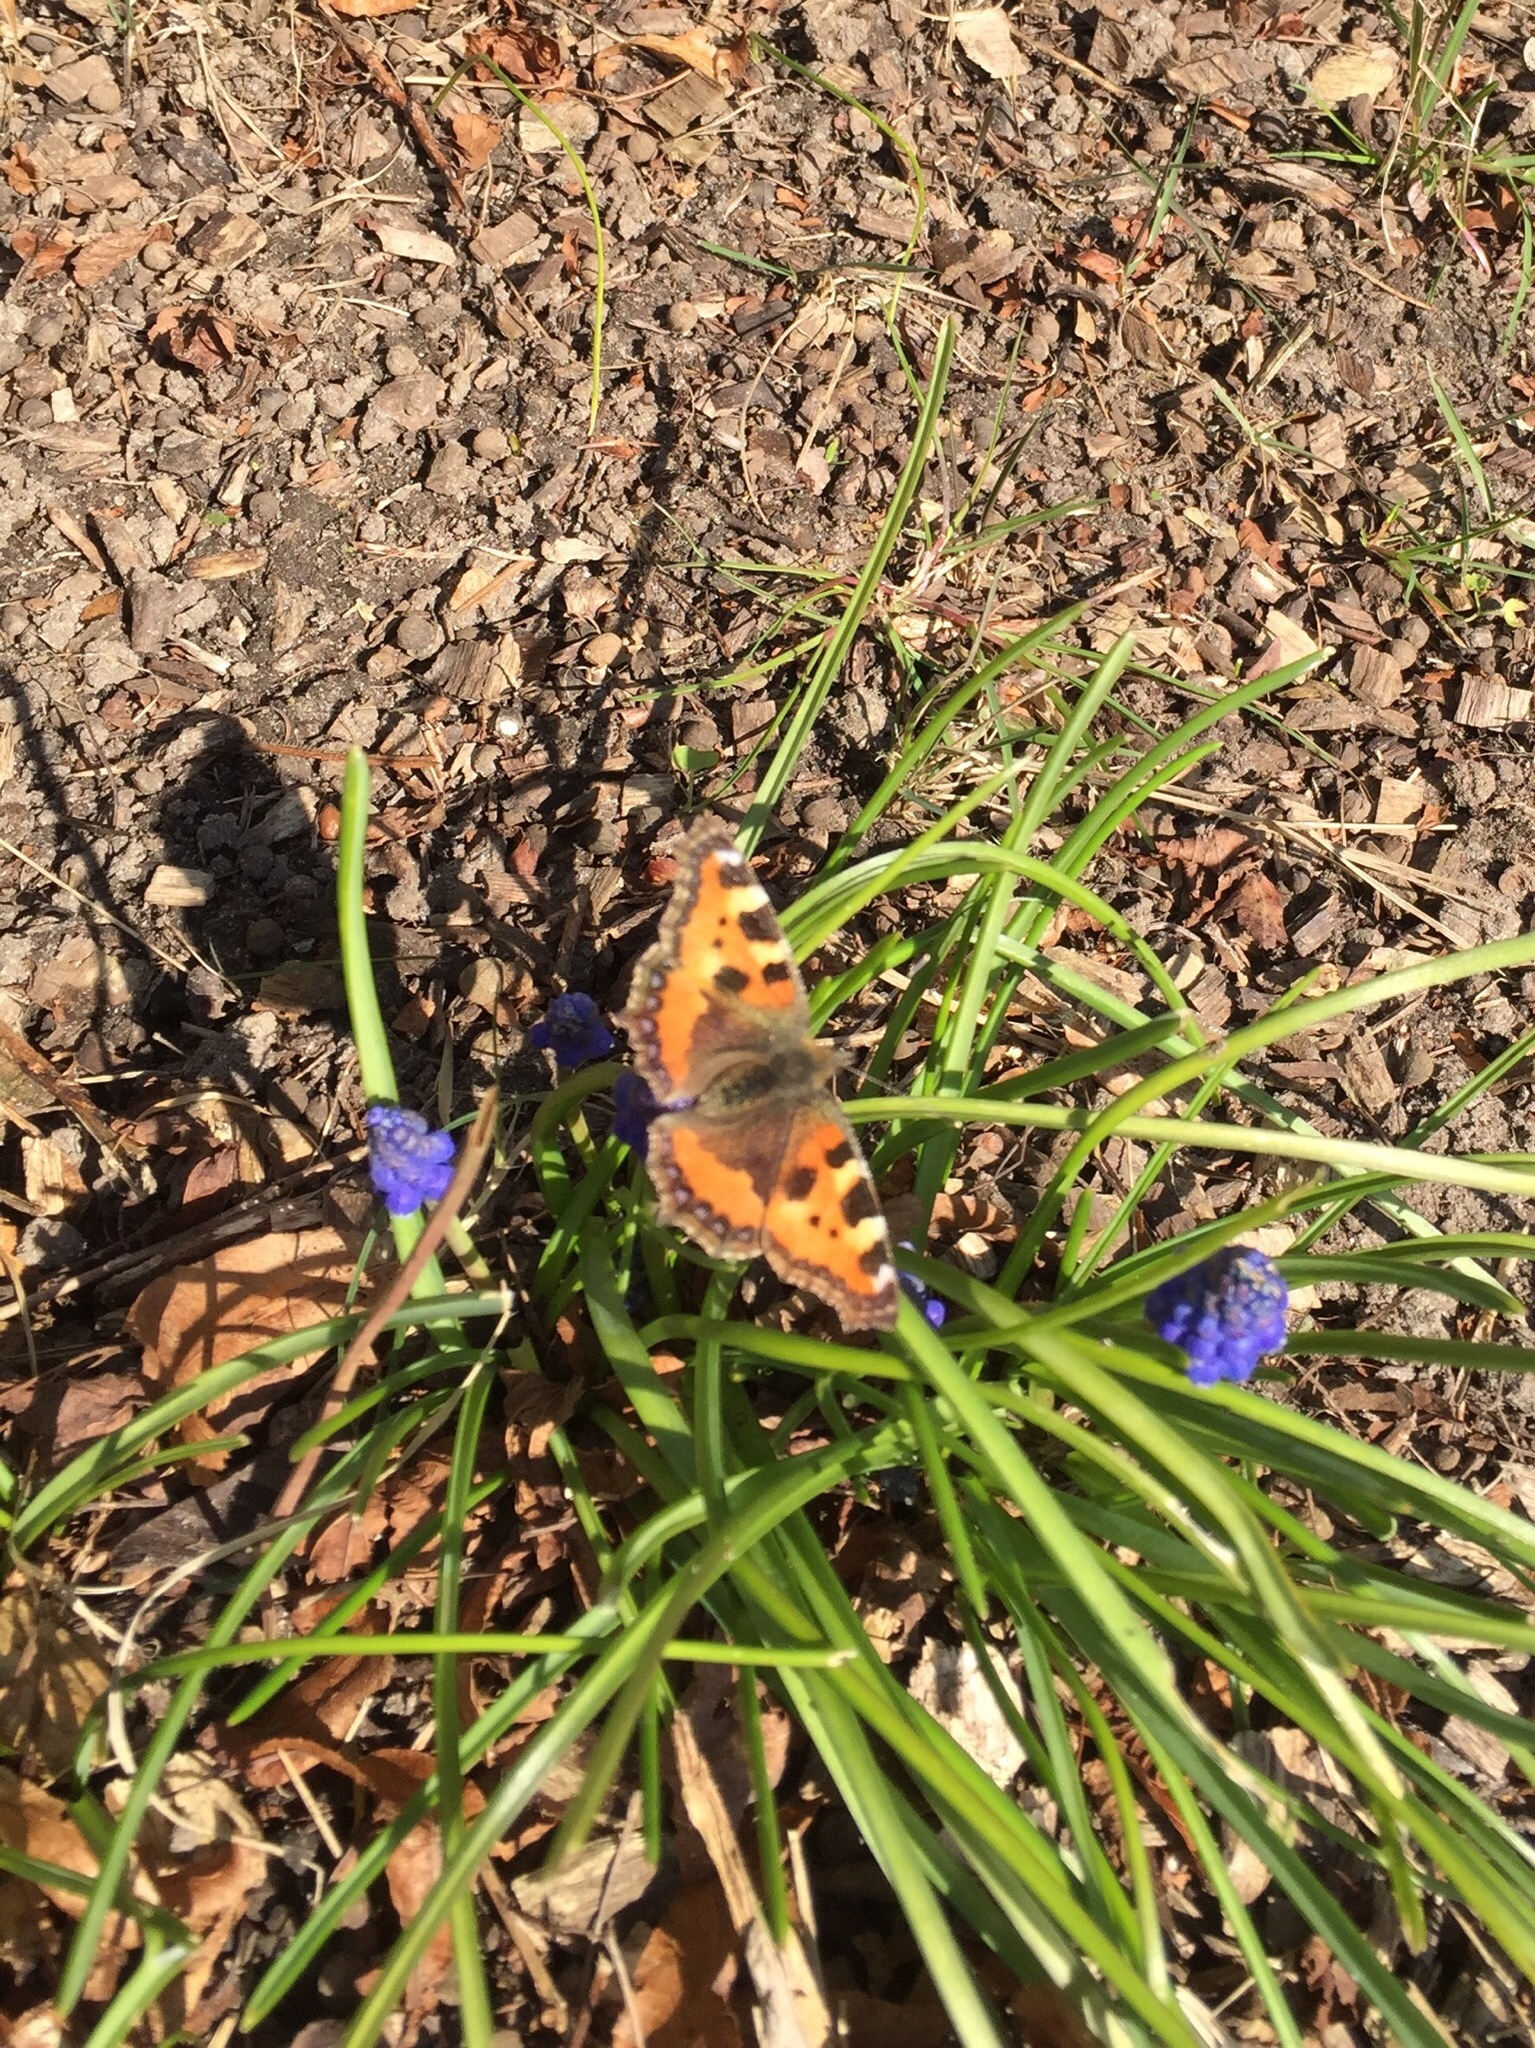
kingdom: Animalia
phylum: Arthropoda
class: Insecta
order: Lepidoptera
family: Nymphalidae
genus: Aglais
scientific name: Aglais urticae
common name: Small tortoiseshell
